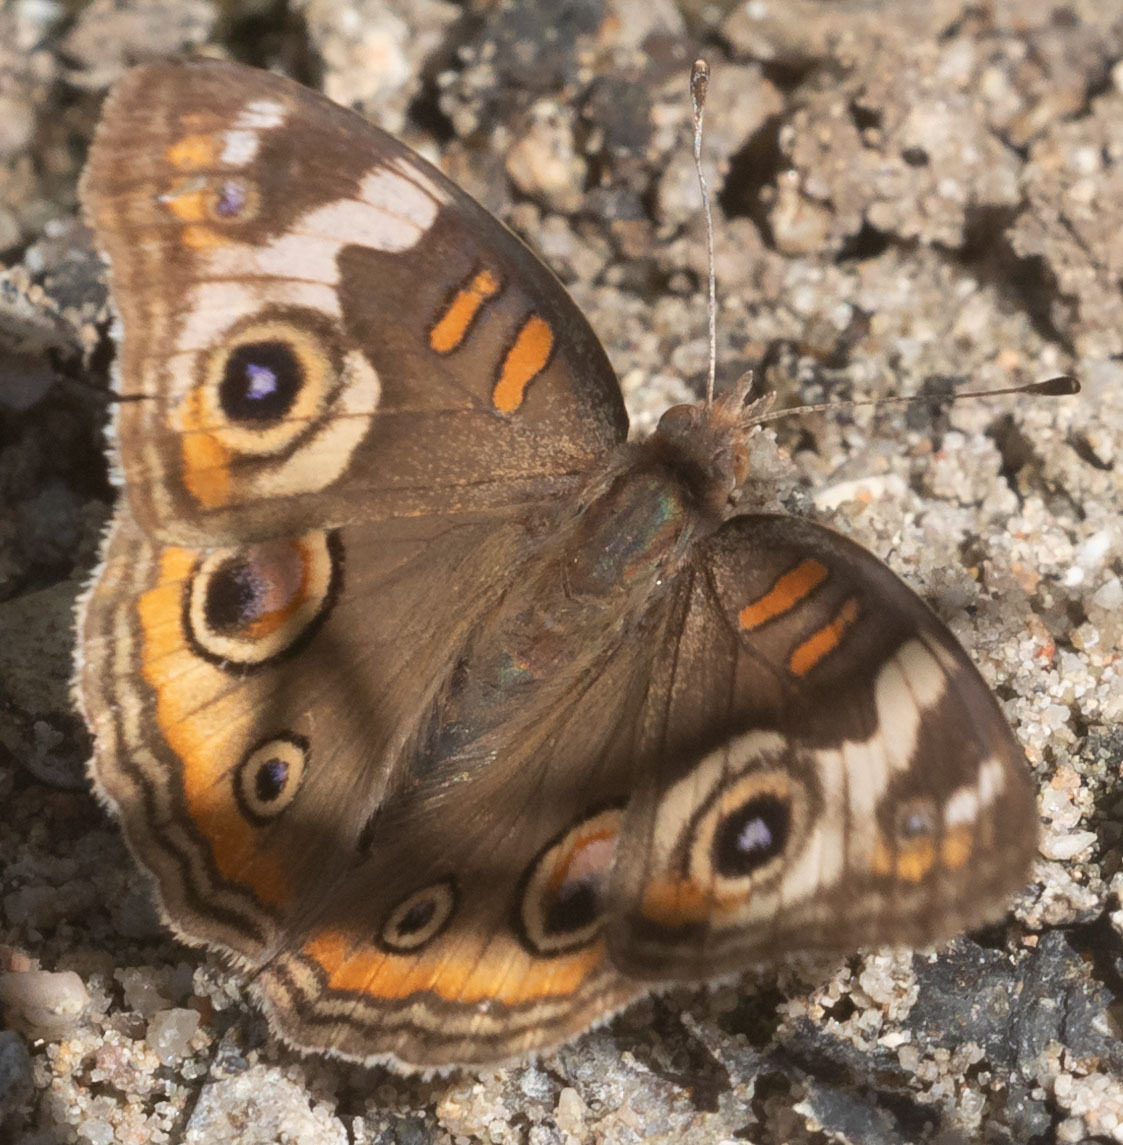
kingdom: Animalia
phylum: Arthropoda
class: Insecta
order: Lepidoptera
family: Nymphalidae
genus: Junonia
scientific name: Junonia grisea
